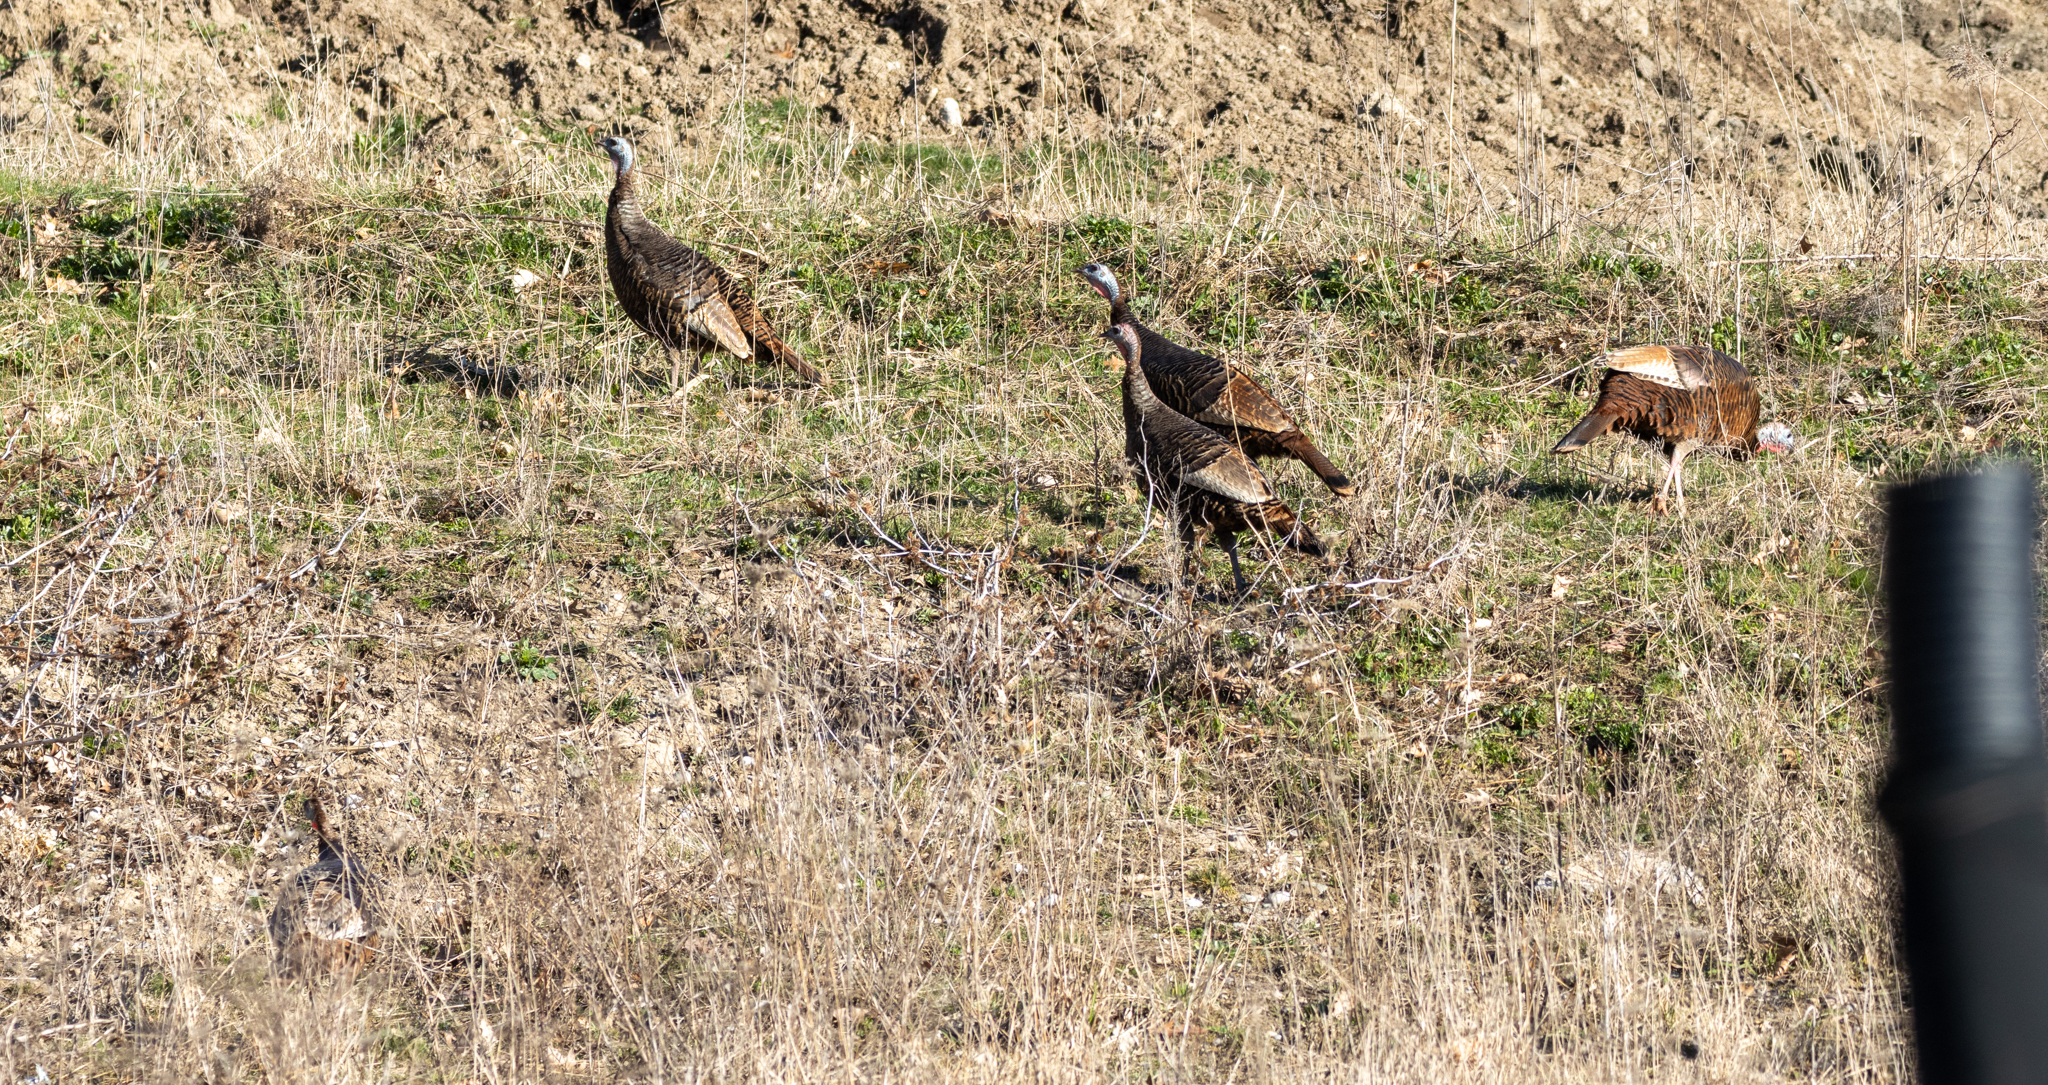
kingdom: Animalia
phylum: Chordata
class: Aves
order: Galliformes
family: Phasianidae
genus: Meleagris
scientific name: Meleagris gallopavo
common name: Wild turkey
